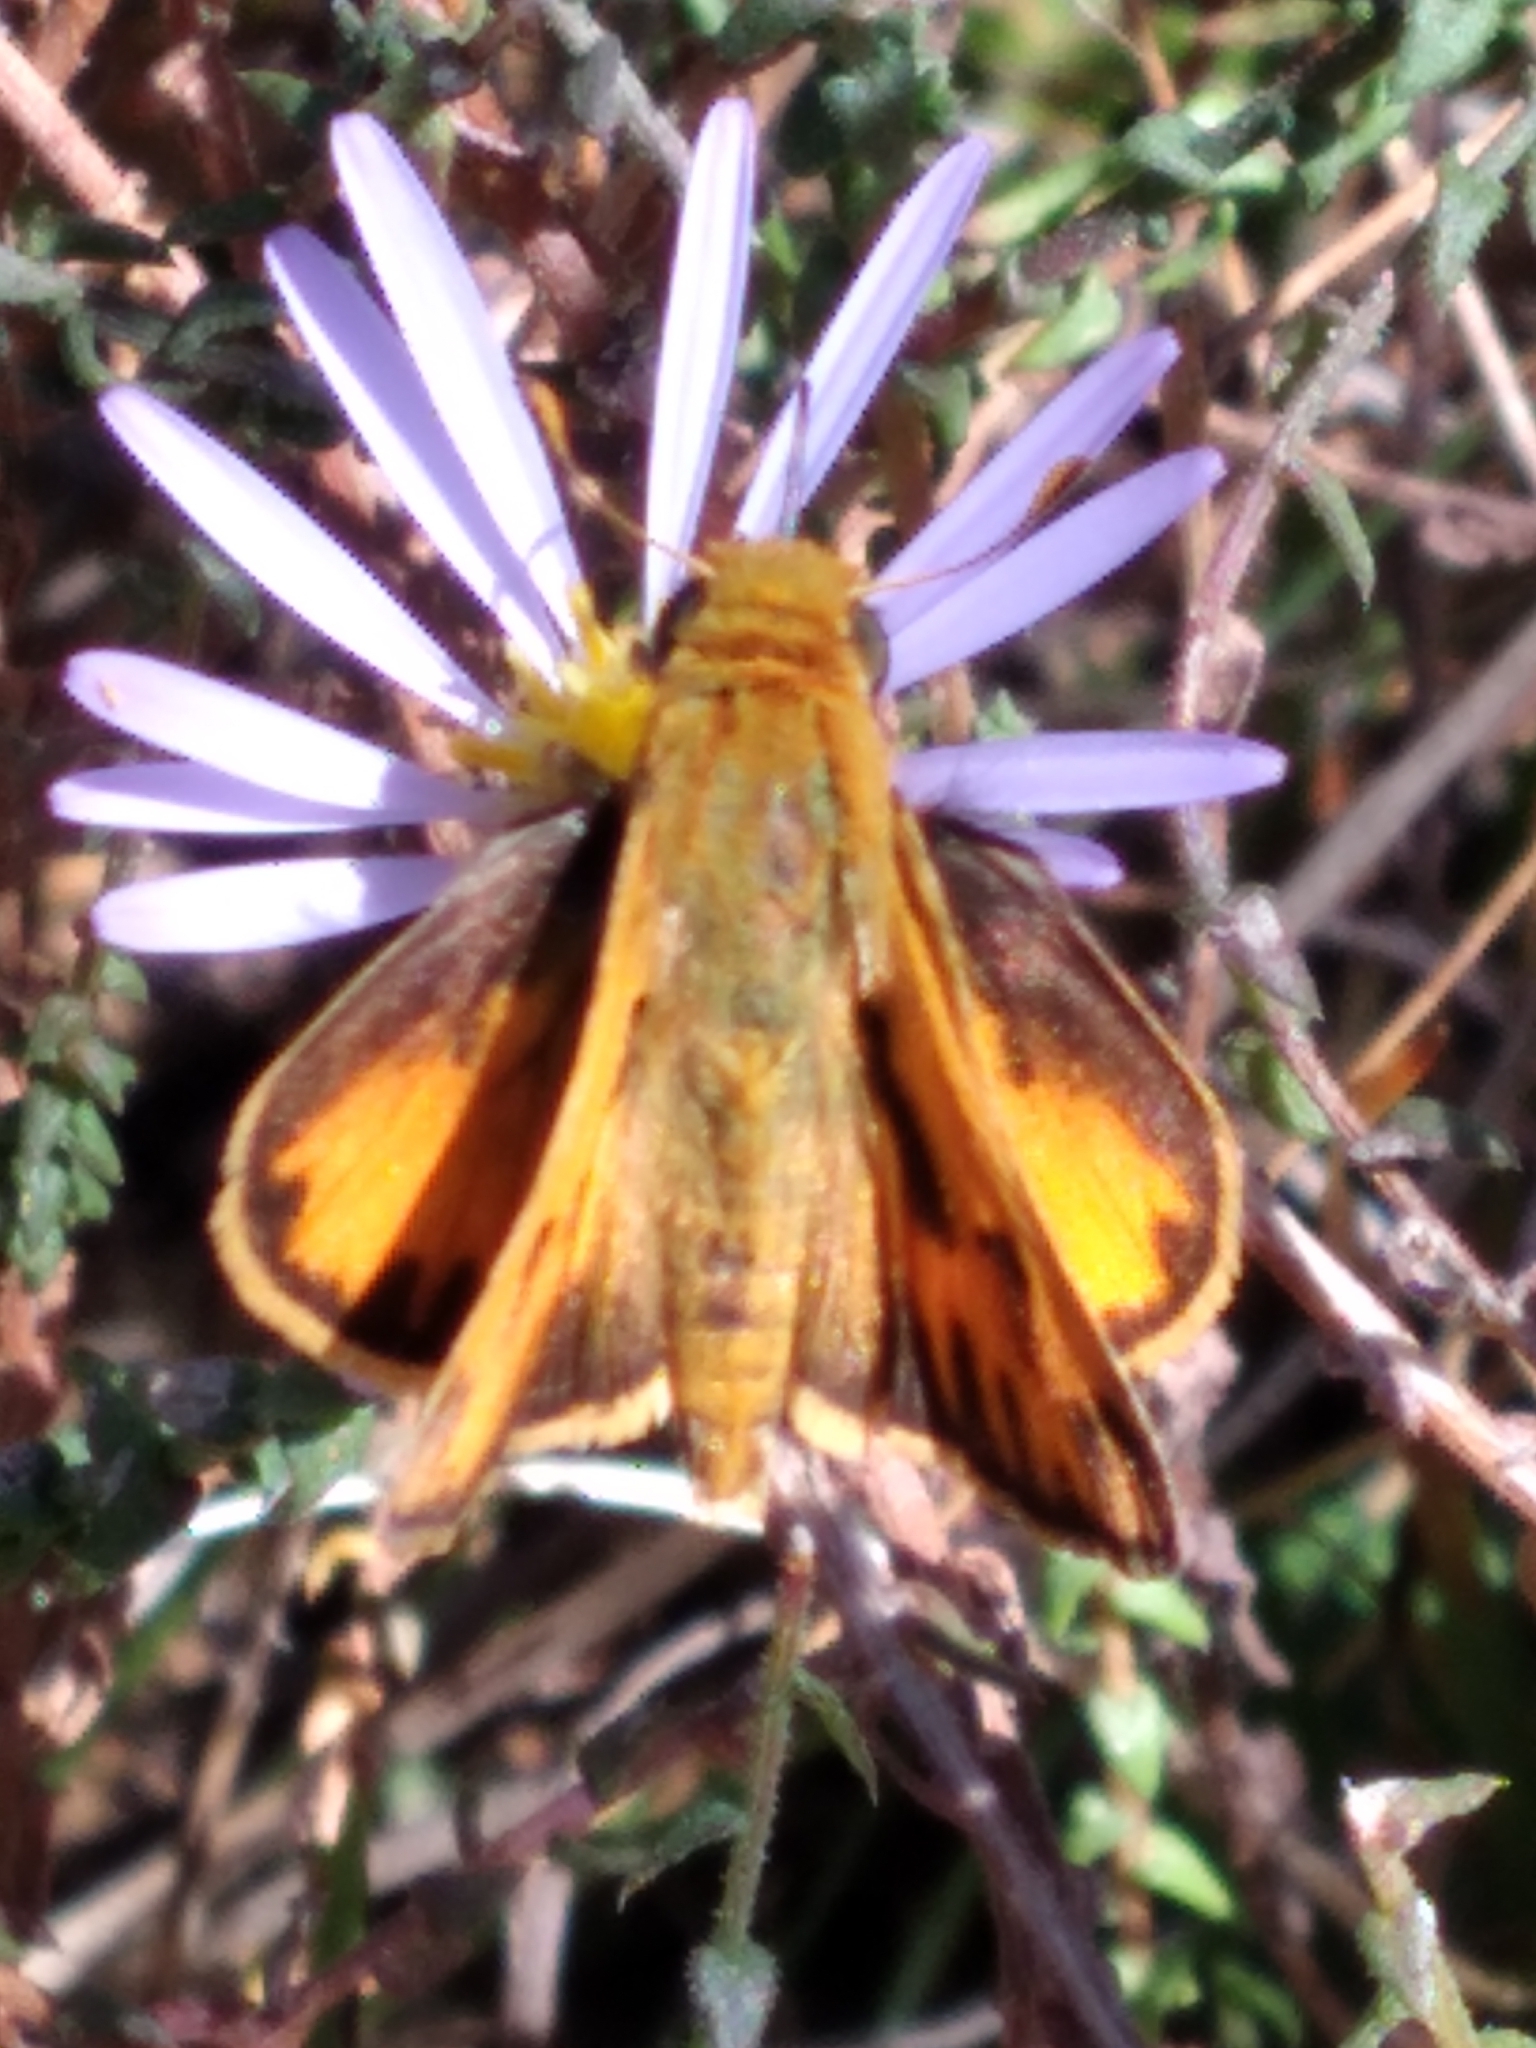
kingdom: Animalia
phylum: Arthropoda
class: Insecta
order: Lepidoptera
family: Hesperiidae
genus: Hylephila
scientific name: Hylephila phyleus
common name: Fiery skipper
